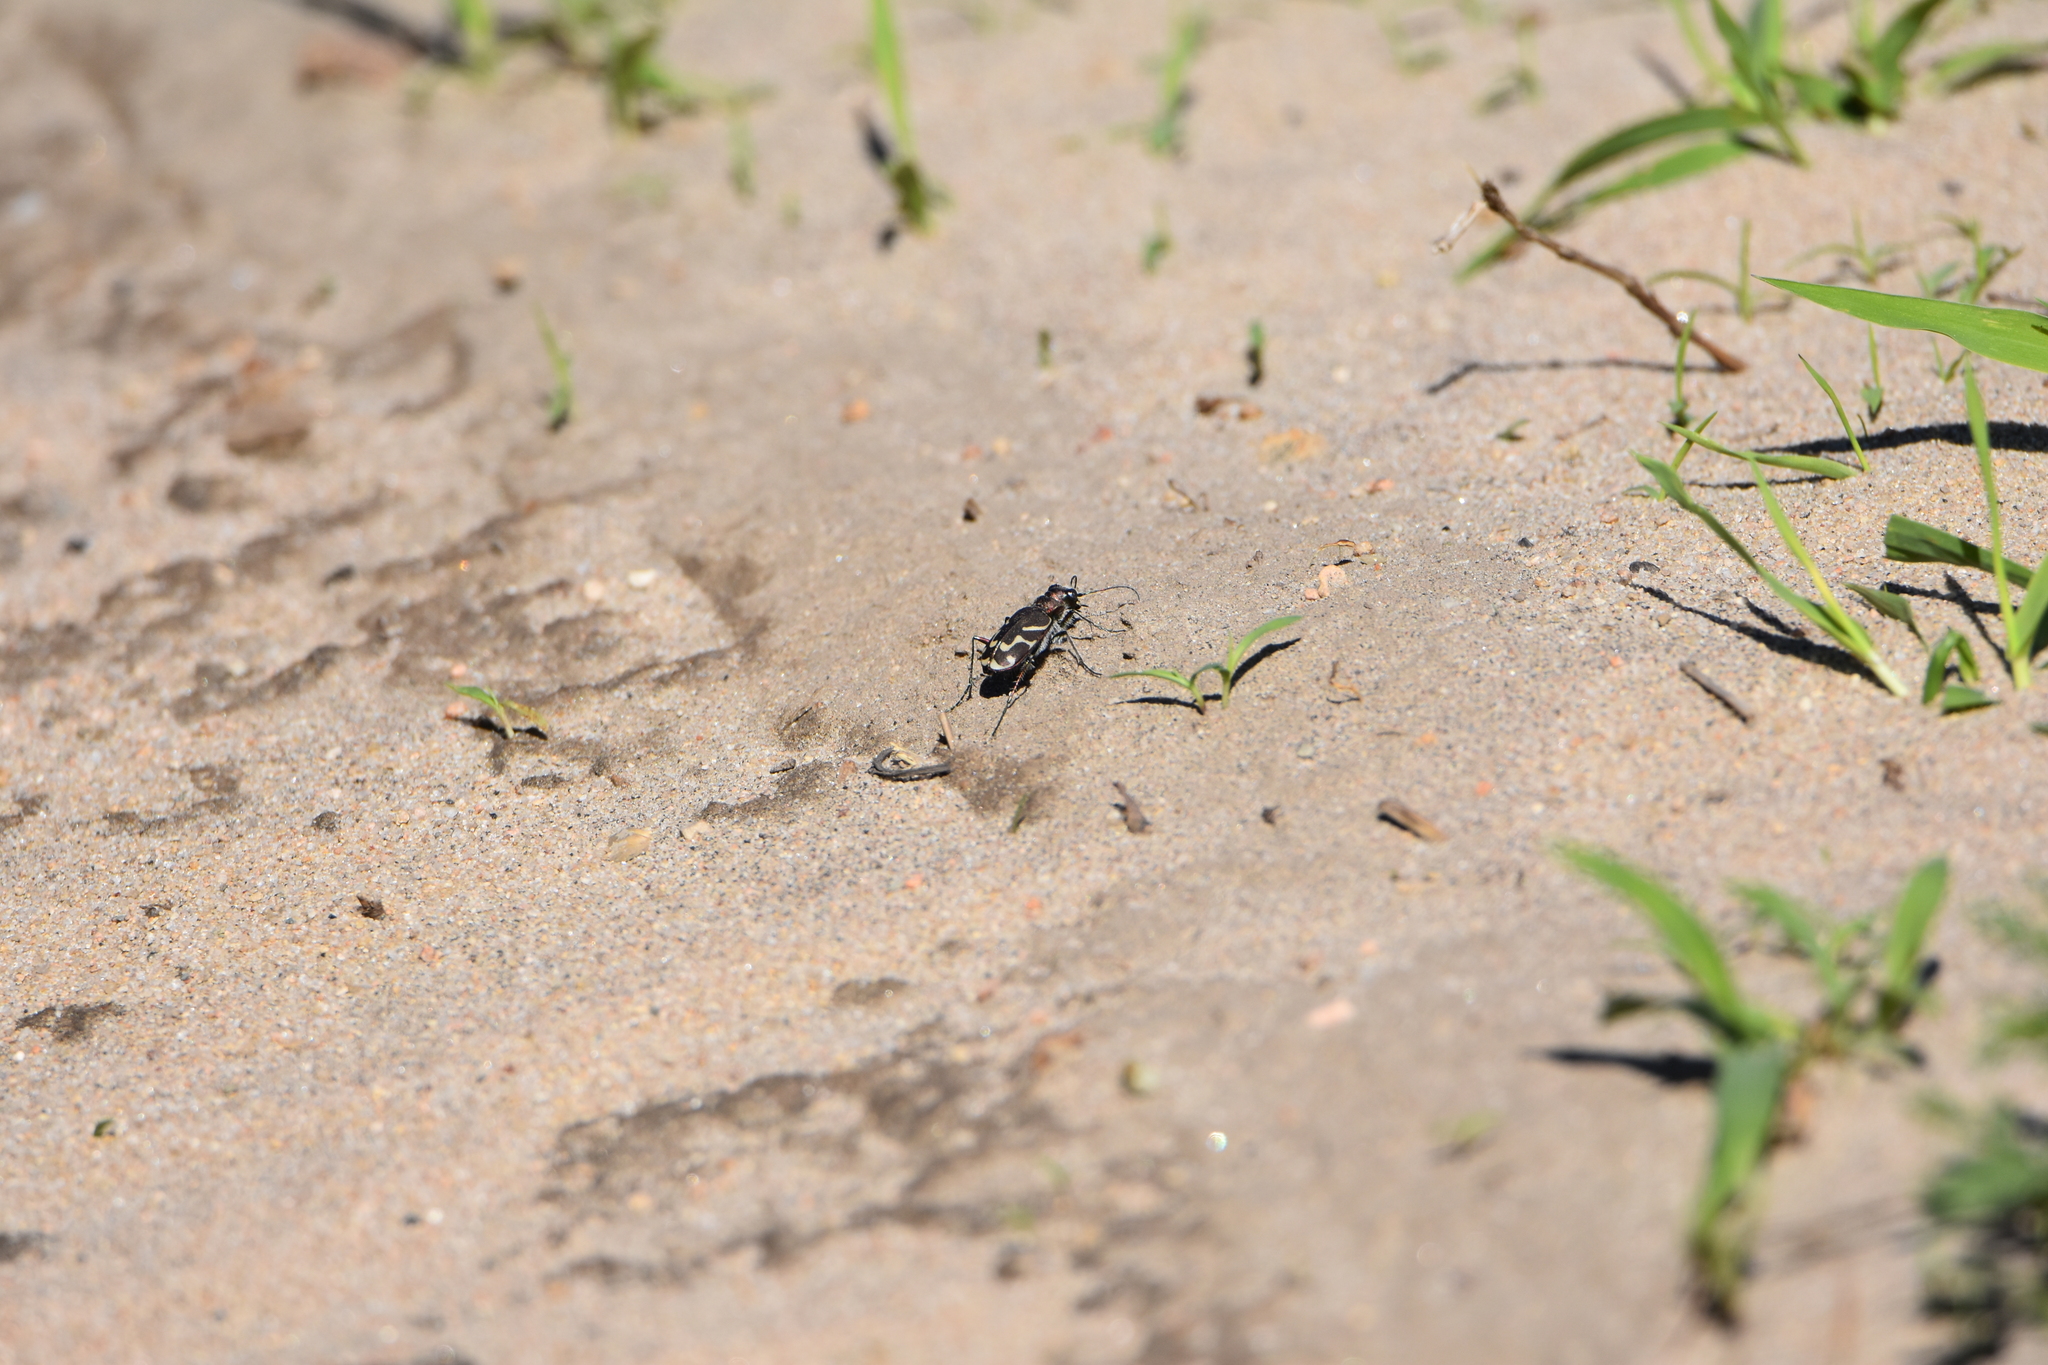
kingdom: Animalia
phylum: Arthropoda
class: Insecta
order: Coleoptera
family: Carabidae
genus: Cicindela
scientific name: Cicindela tranquebarica
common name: Oblique-lined tiger beetle
